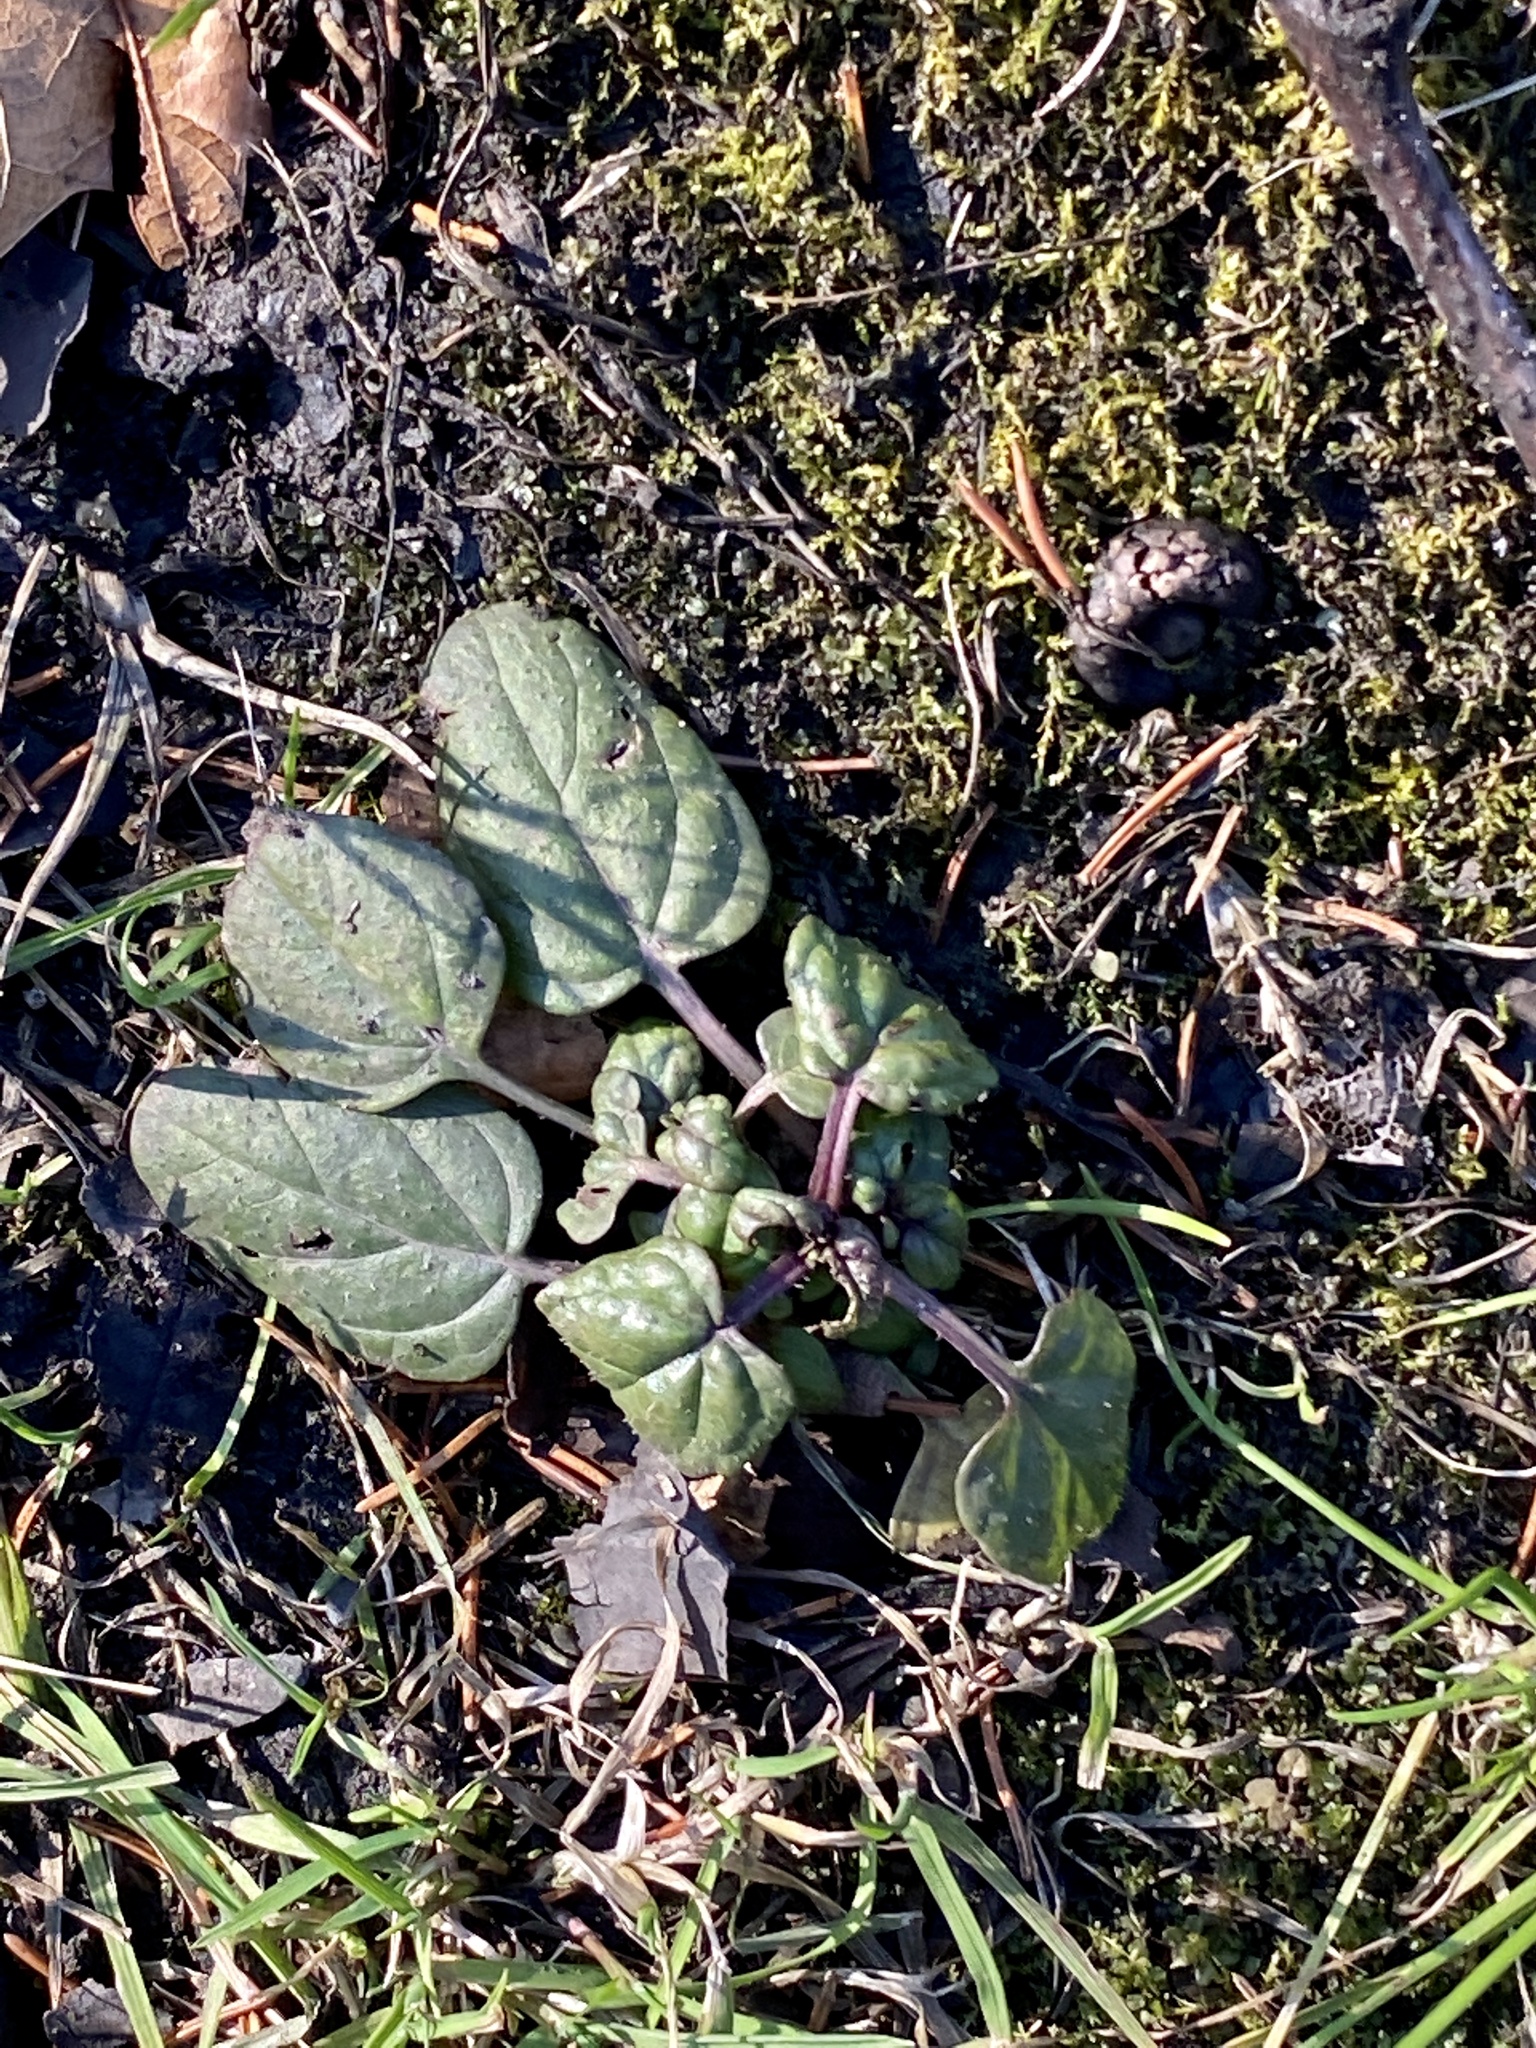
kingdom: Plantae
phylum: Tracheophyta
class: Magnoliopsida
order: Lamiales
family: Lamiaceae
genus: Prunella
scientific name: Prunella vulgaris
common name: Heal-all
